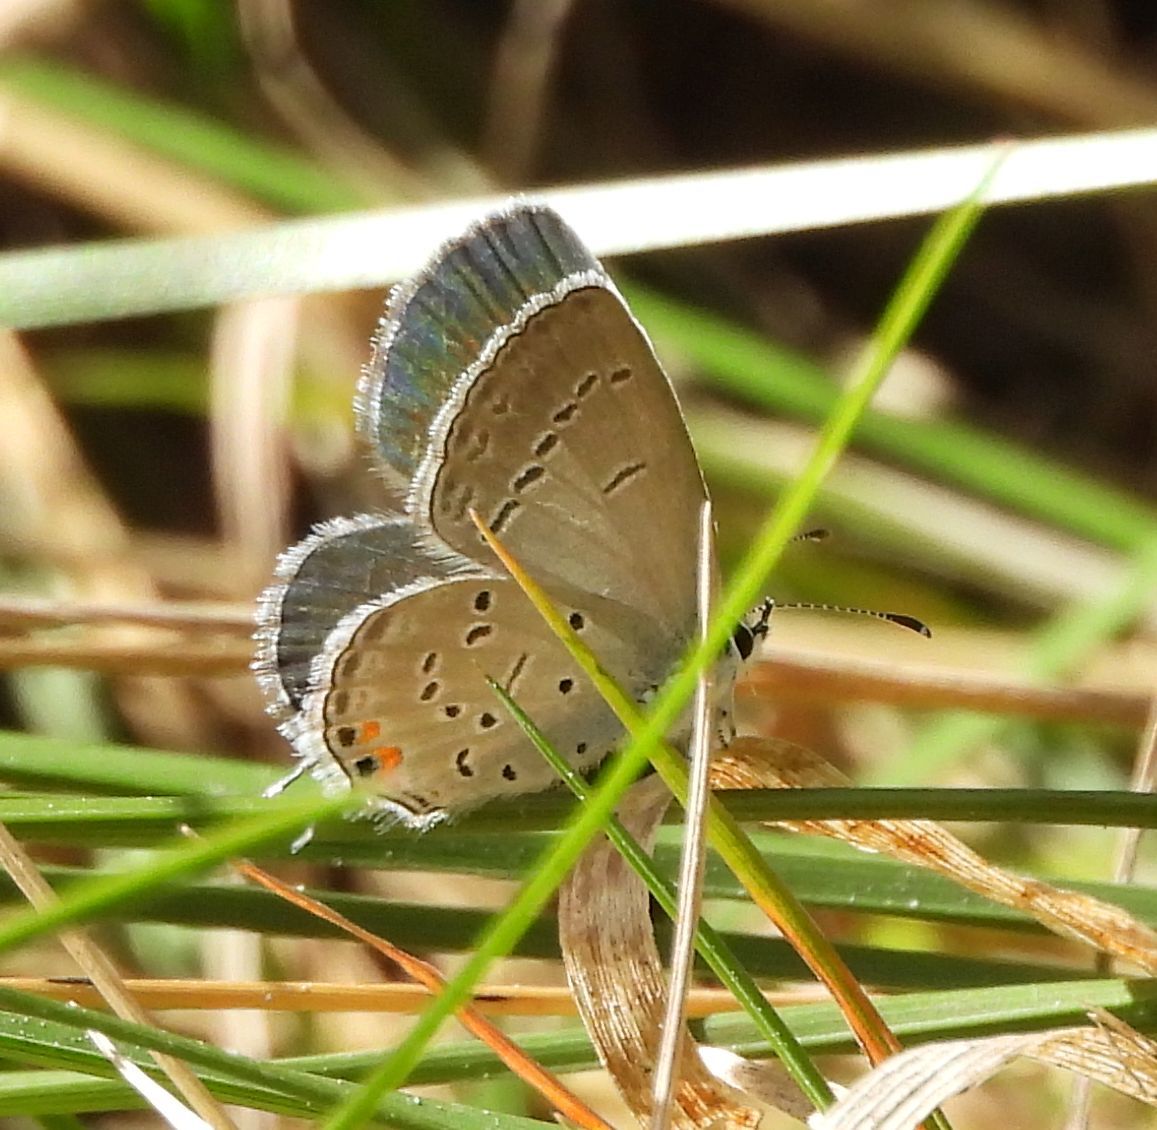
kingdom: Animalia
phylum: Arthropoda
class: Insecta
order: Lepidoptera
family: Lycaenidae
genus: Elkalyce
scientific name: Elkalyce comyntas
